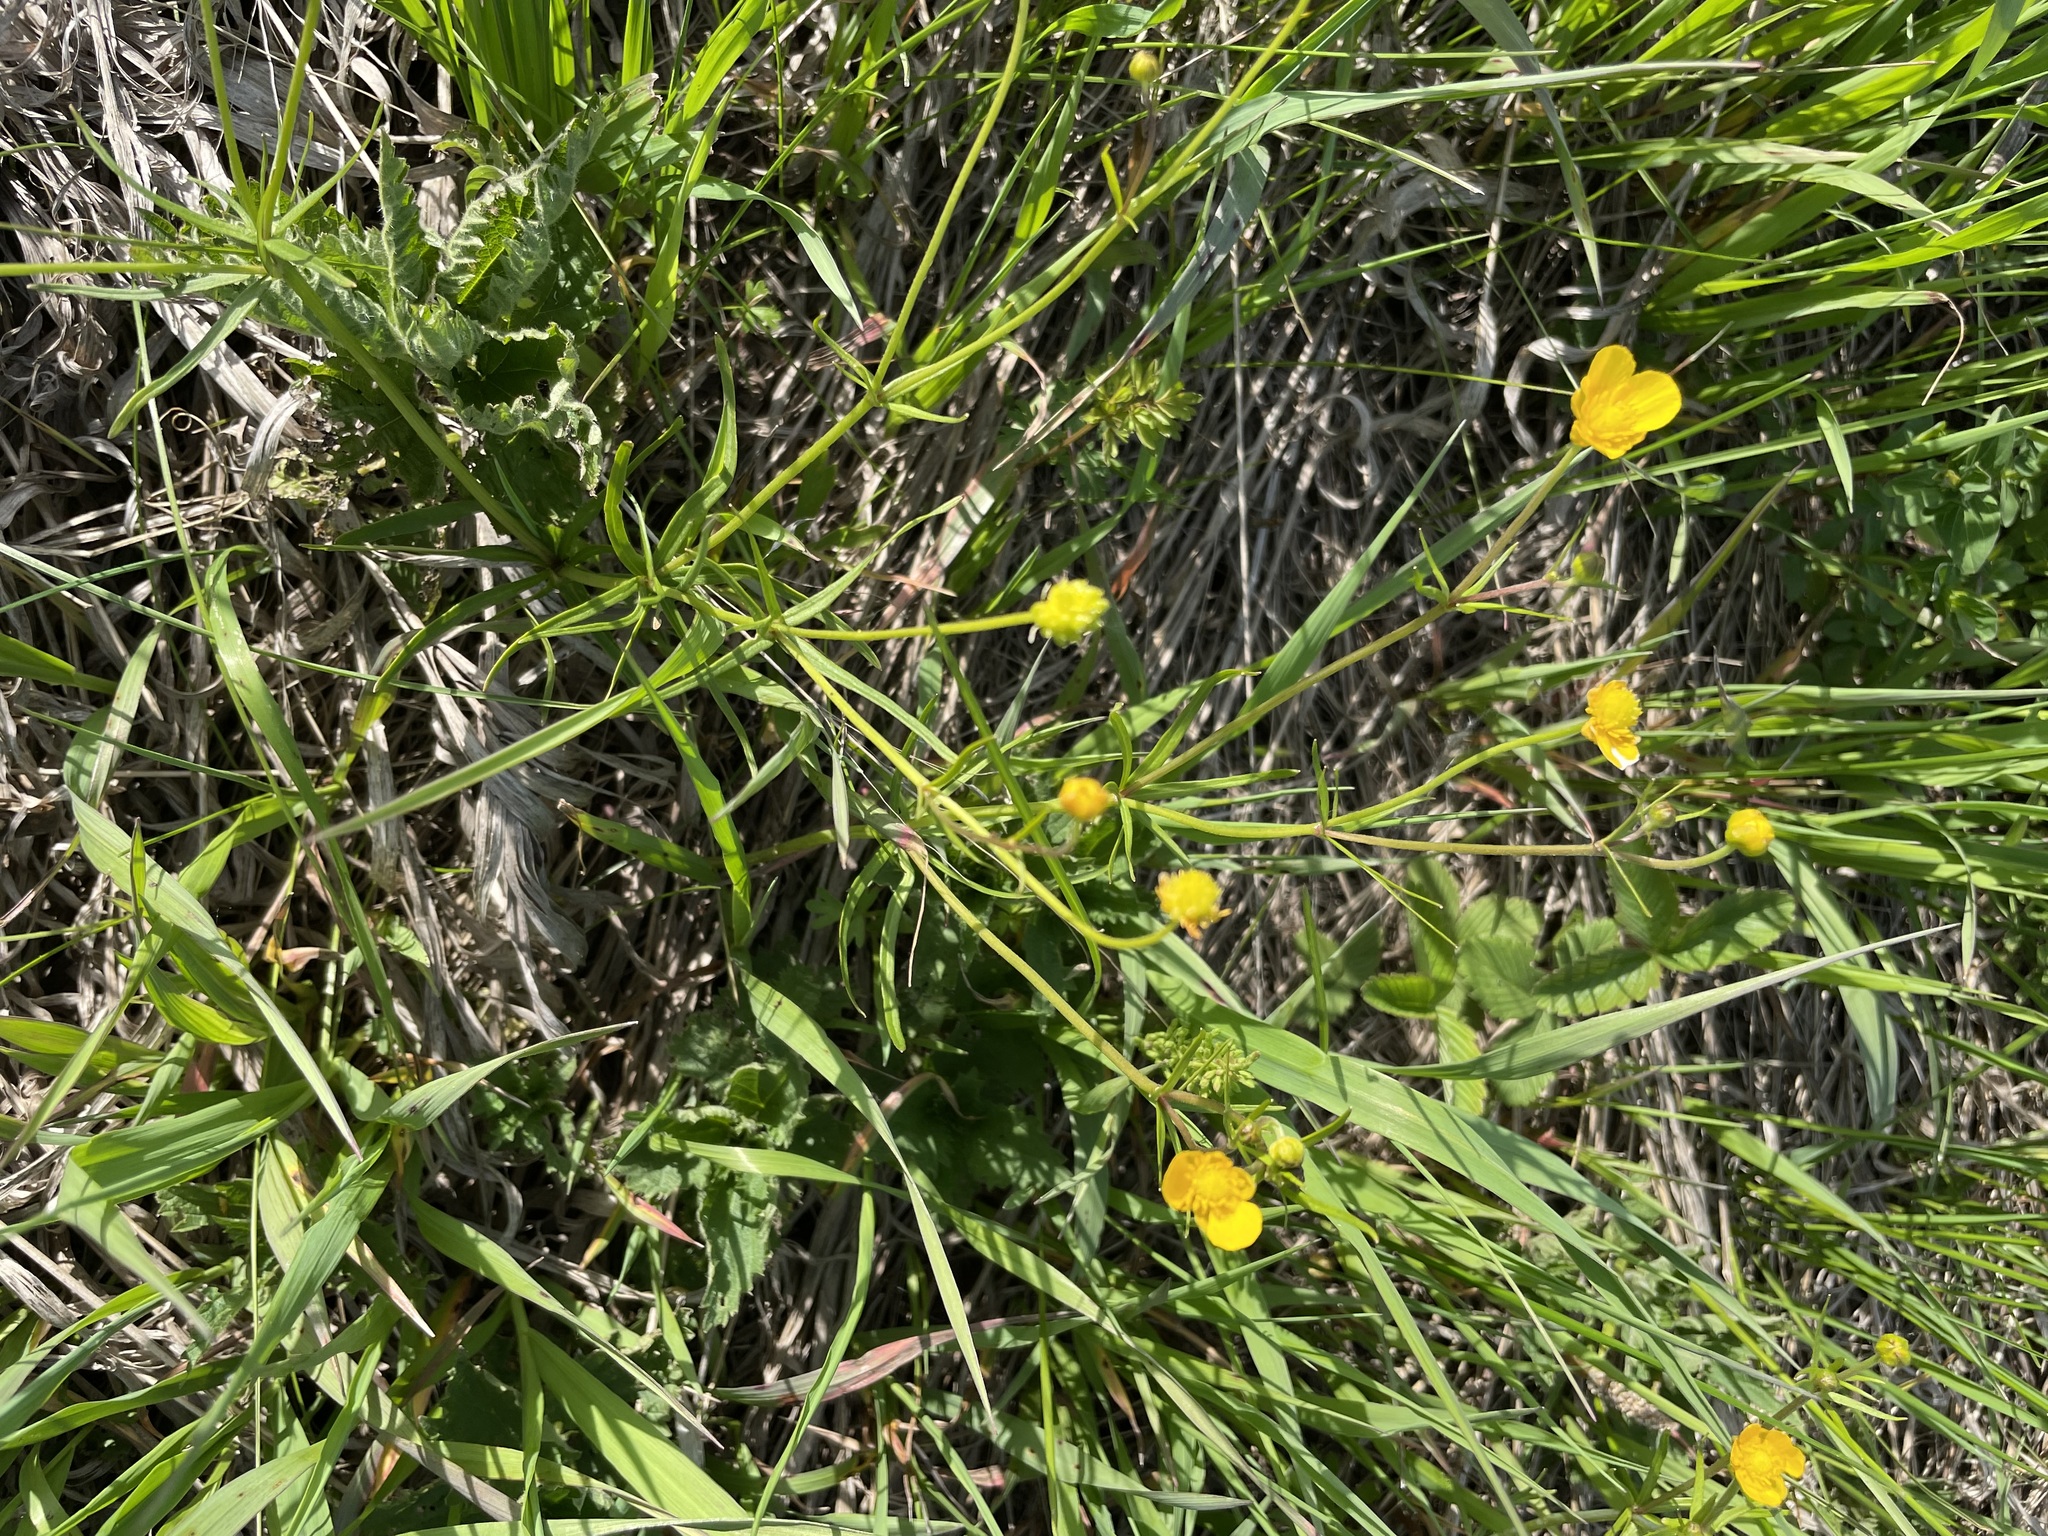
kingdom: Plantae
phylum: Tracheophyta
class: Magnoliopsida
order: Ranunculales
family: Ranunculaceae
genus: Ranunculus
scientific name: Ranunculus auricomus
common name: Goldilocks buttercup
